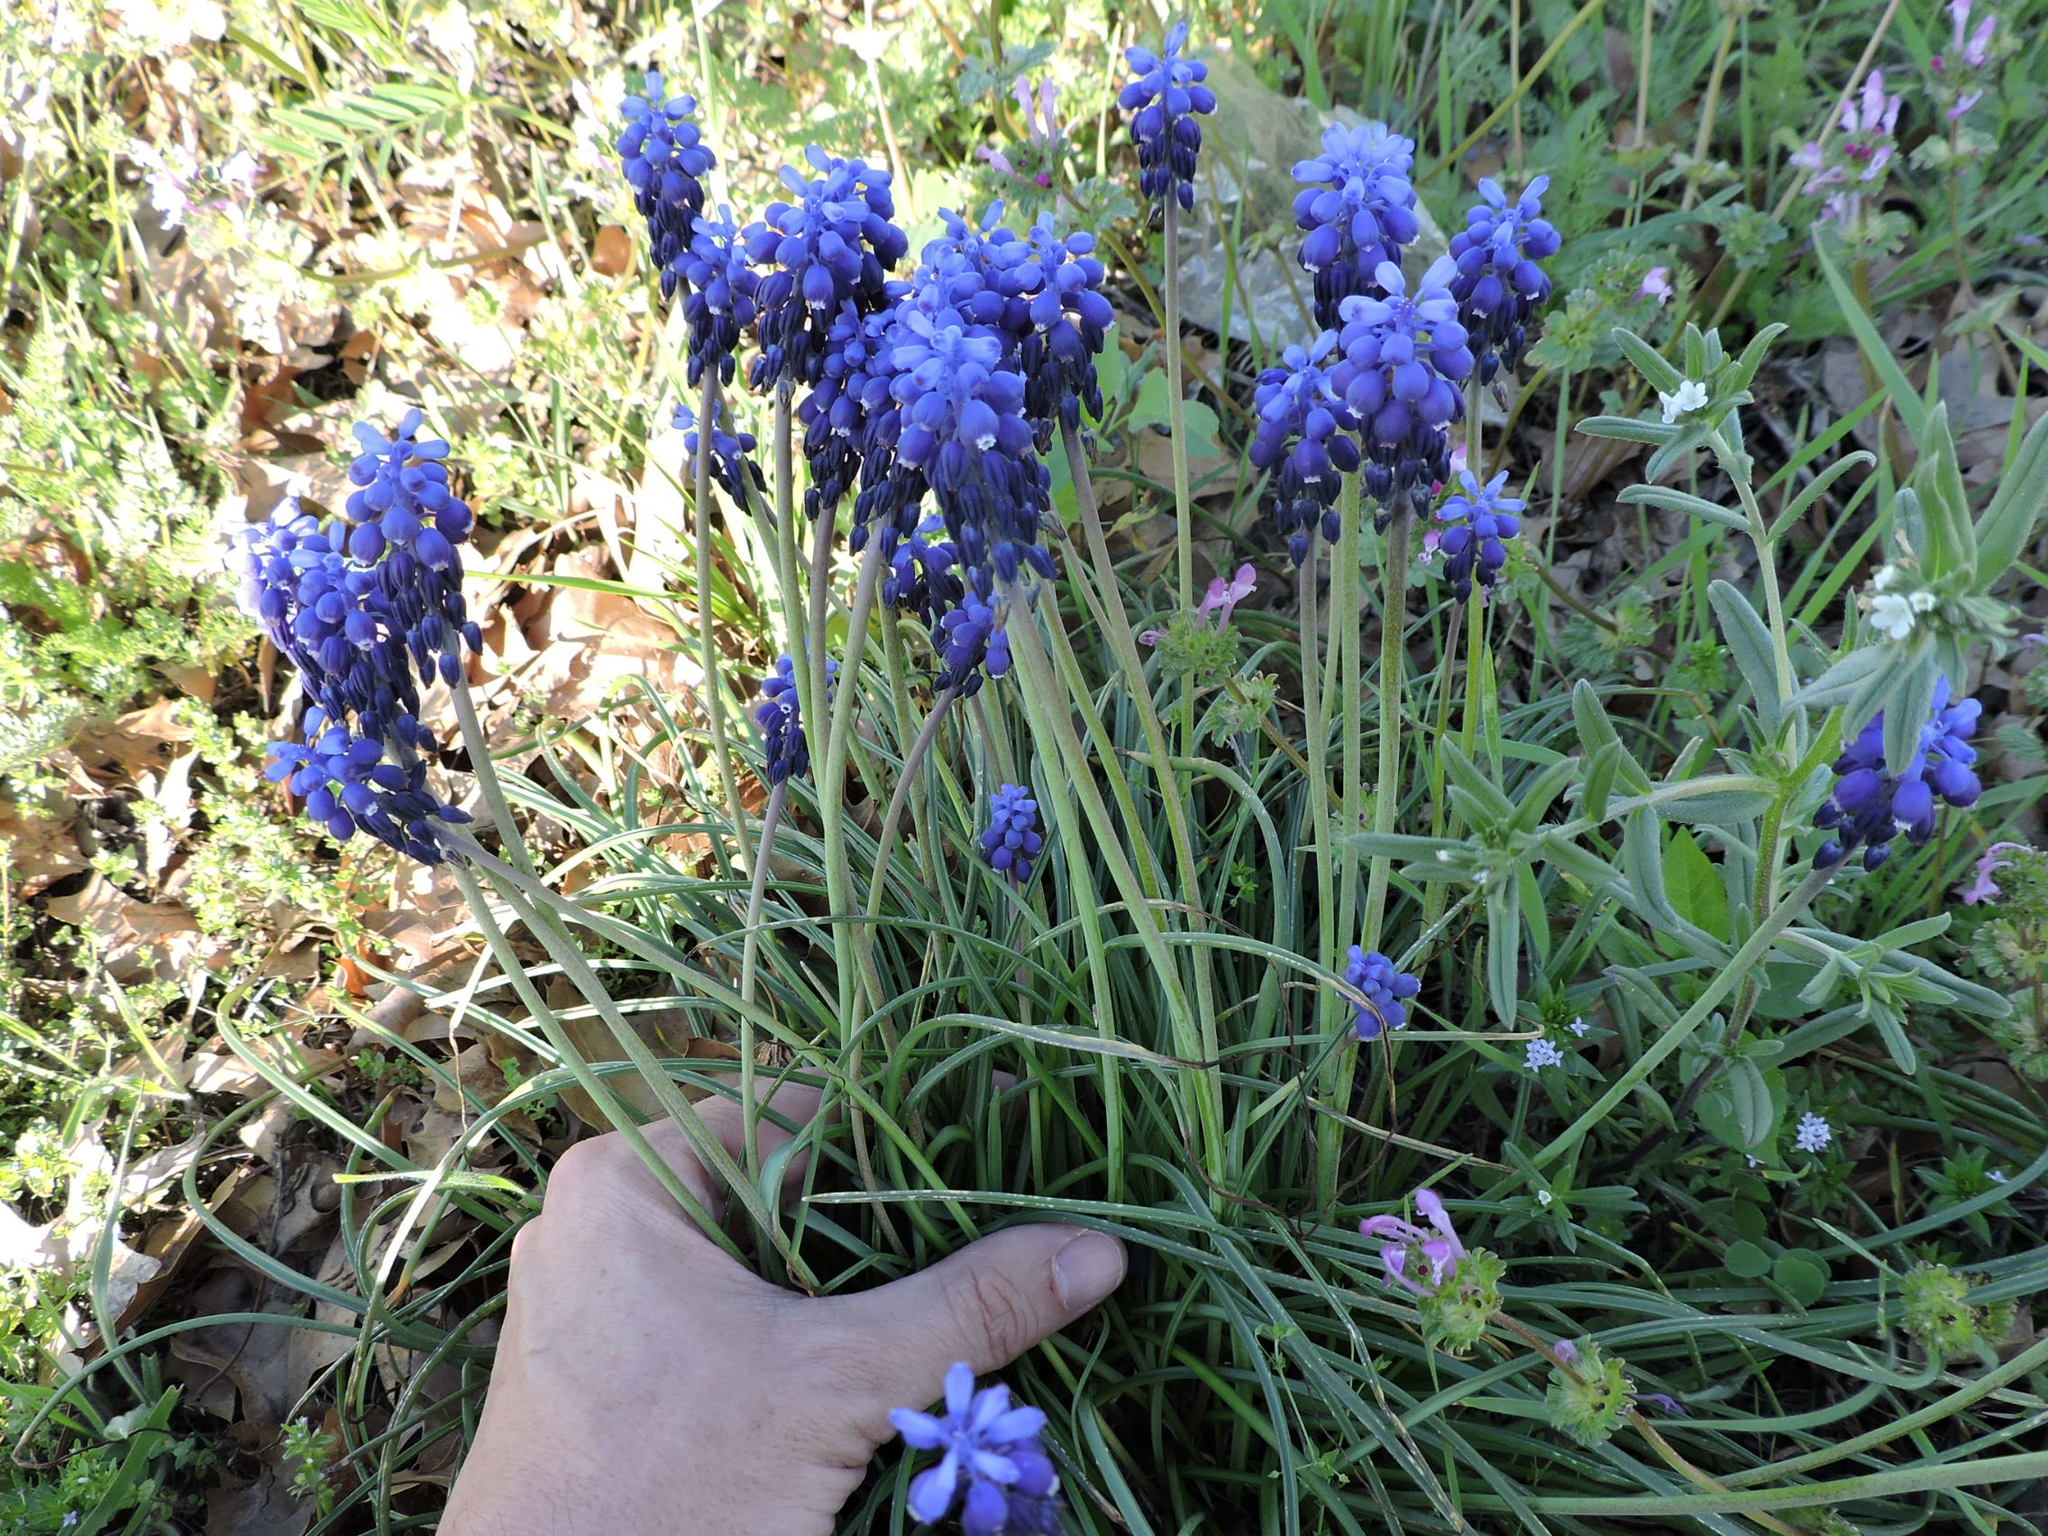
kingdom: Plantae
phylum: Tracheophyta
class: Liliopsida
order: Asparagales
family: Asparagaceae
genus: Muscari
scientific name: Muscari neglectum
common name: Grape-hyacinth
